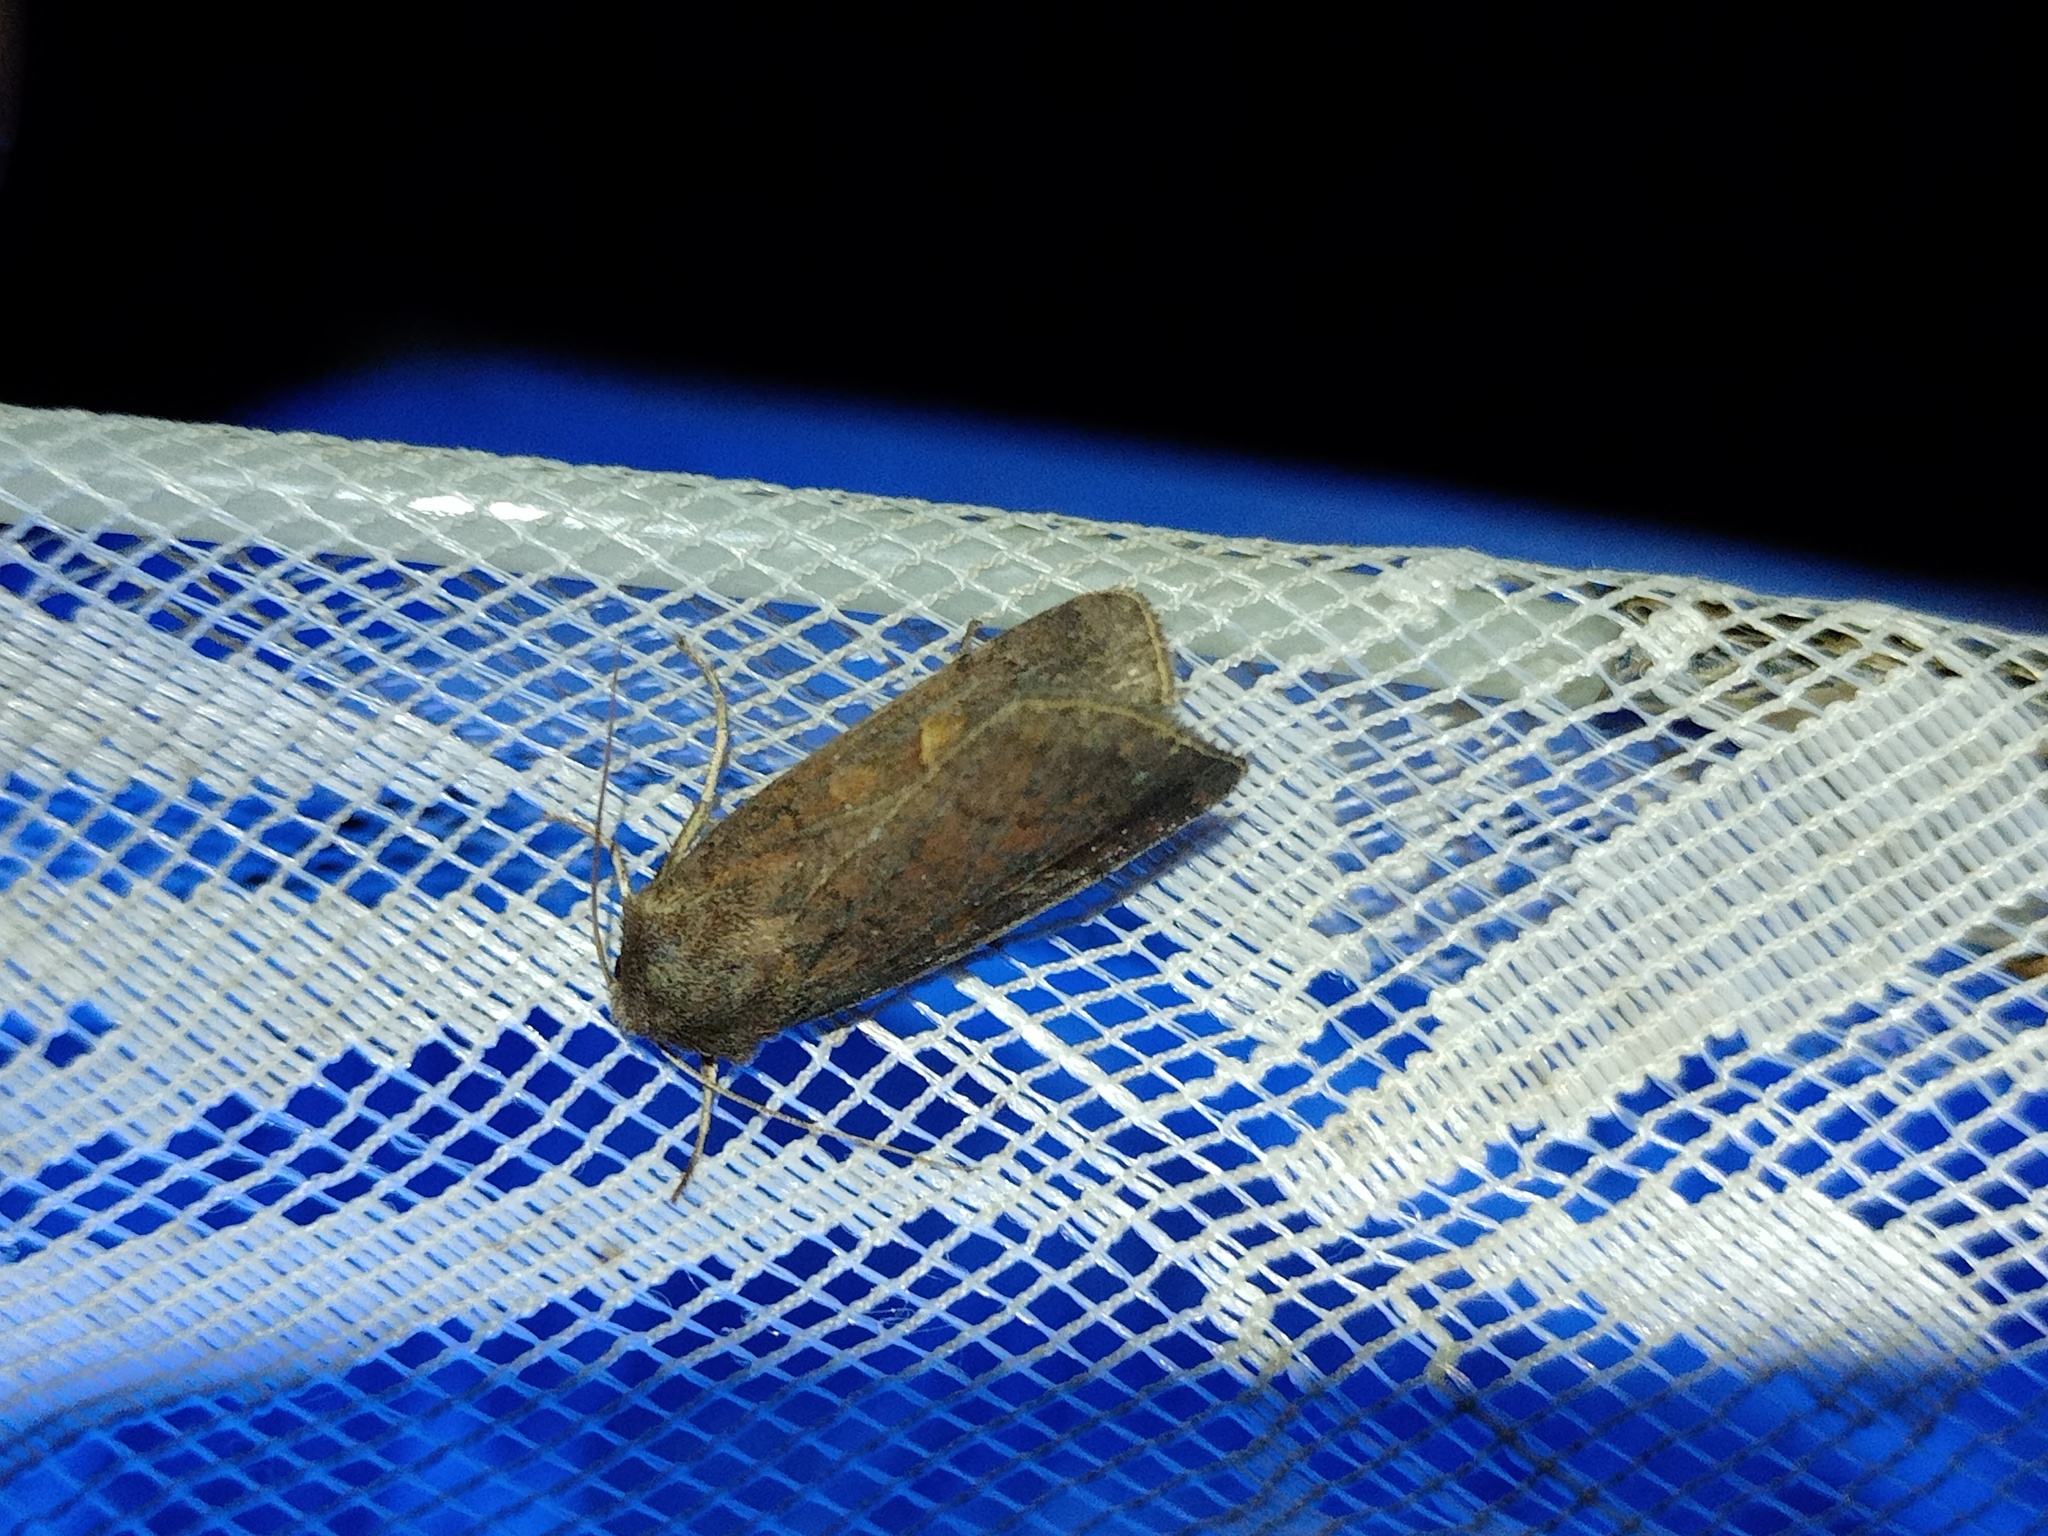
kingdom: Animalia
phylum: Arthropoda
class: Insecta
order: Lepidoptera
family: Noctuidae
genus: Xestia
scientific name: Xestia xanthographa
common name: Square-spot rustic
